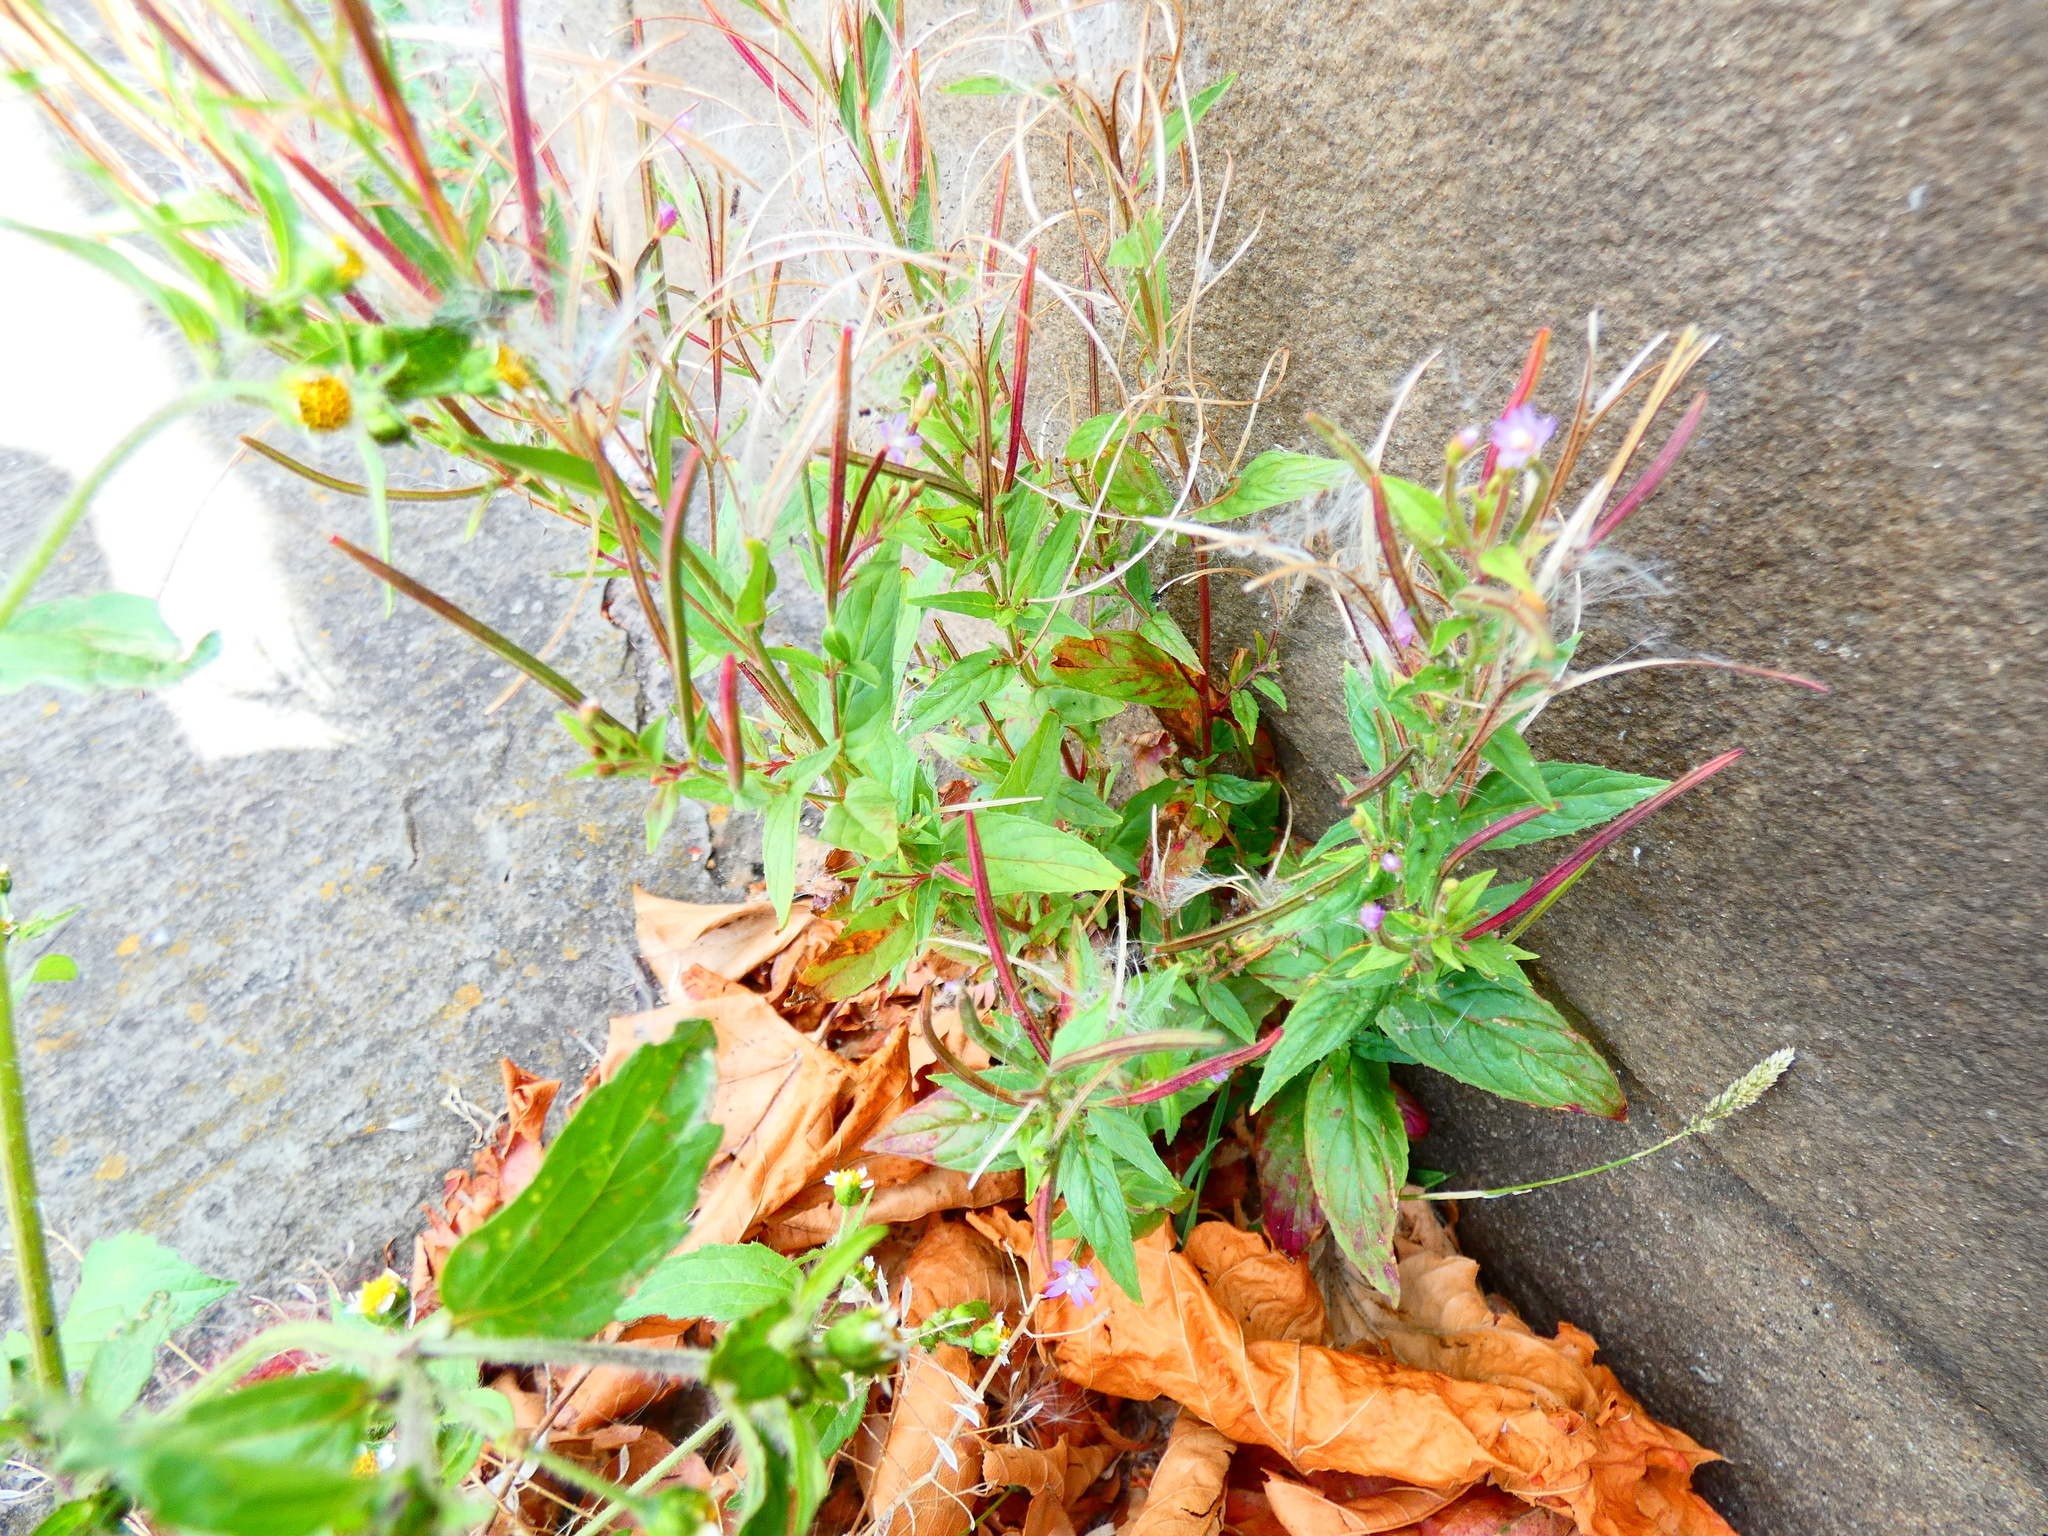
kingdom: Plantae
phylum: Tracheophyta
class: Magnoliopsida
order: Myrtales
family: Onagraceae
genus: Epilobium
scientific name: Epilobium ciliatum
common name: American willowherb
